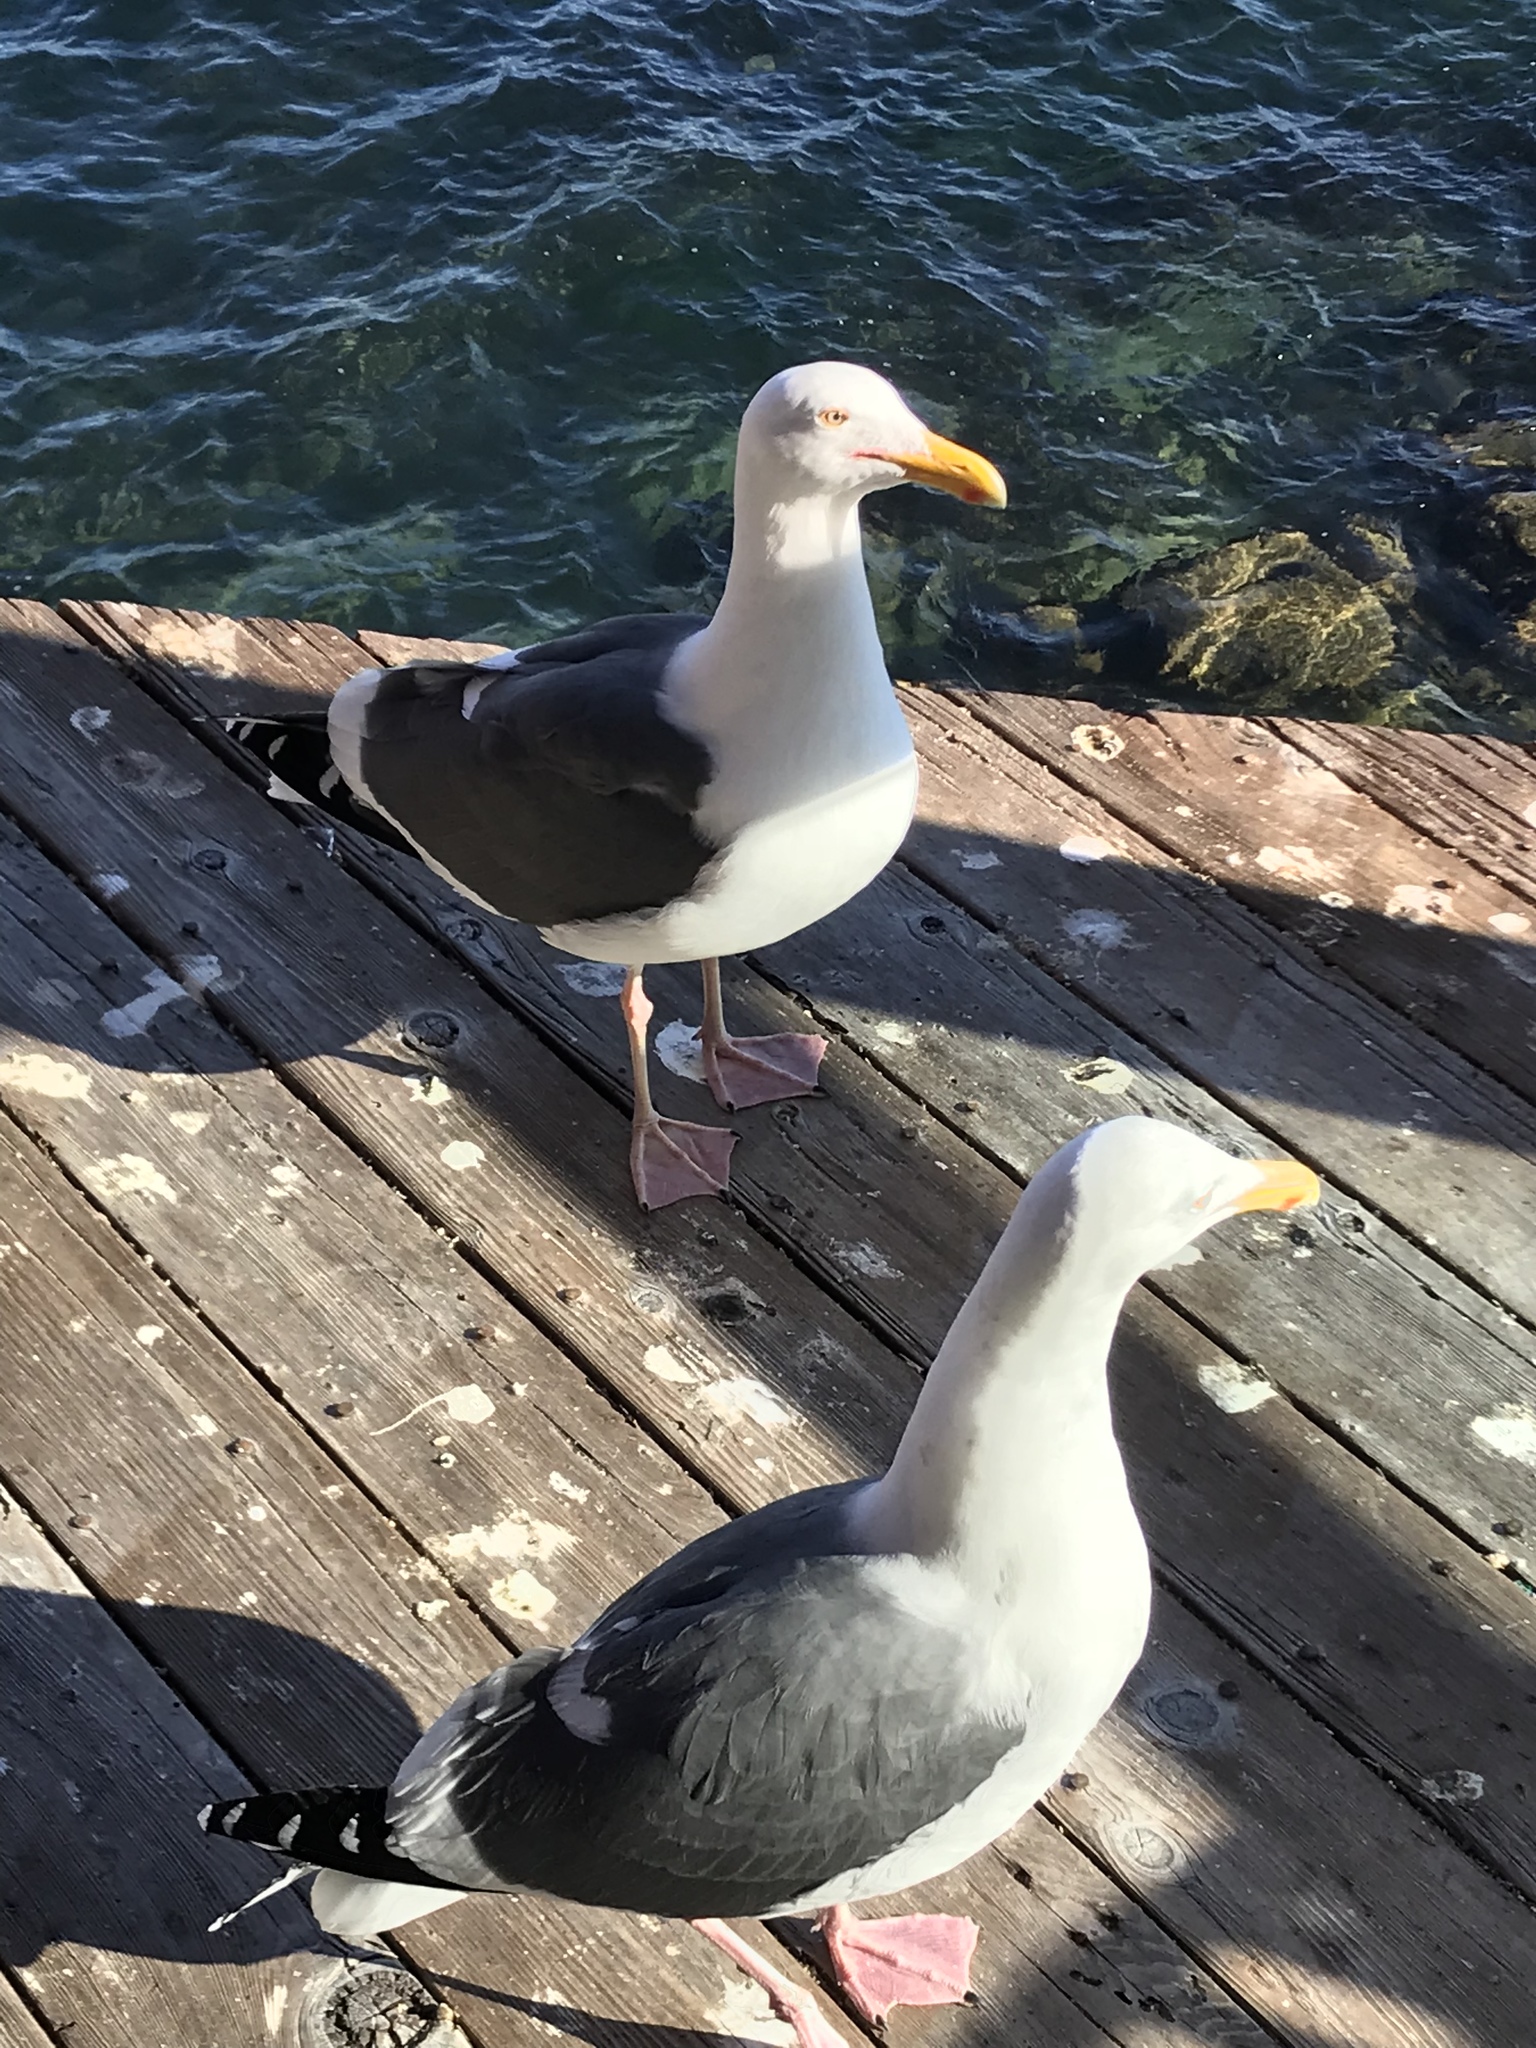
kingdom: Animalia
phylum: Chordata
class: Aves
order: Charadriiformes
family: Laridae
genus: Larus
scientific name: Larus occidentalis
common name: Western gull
